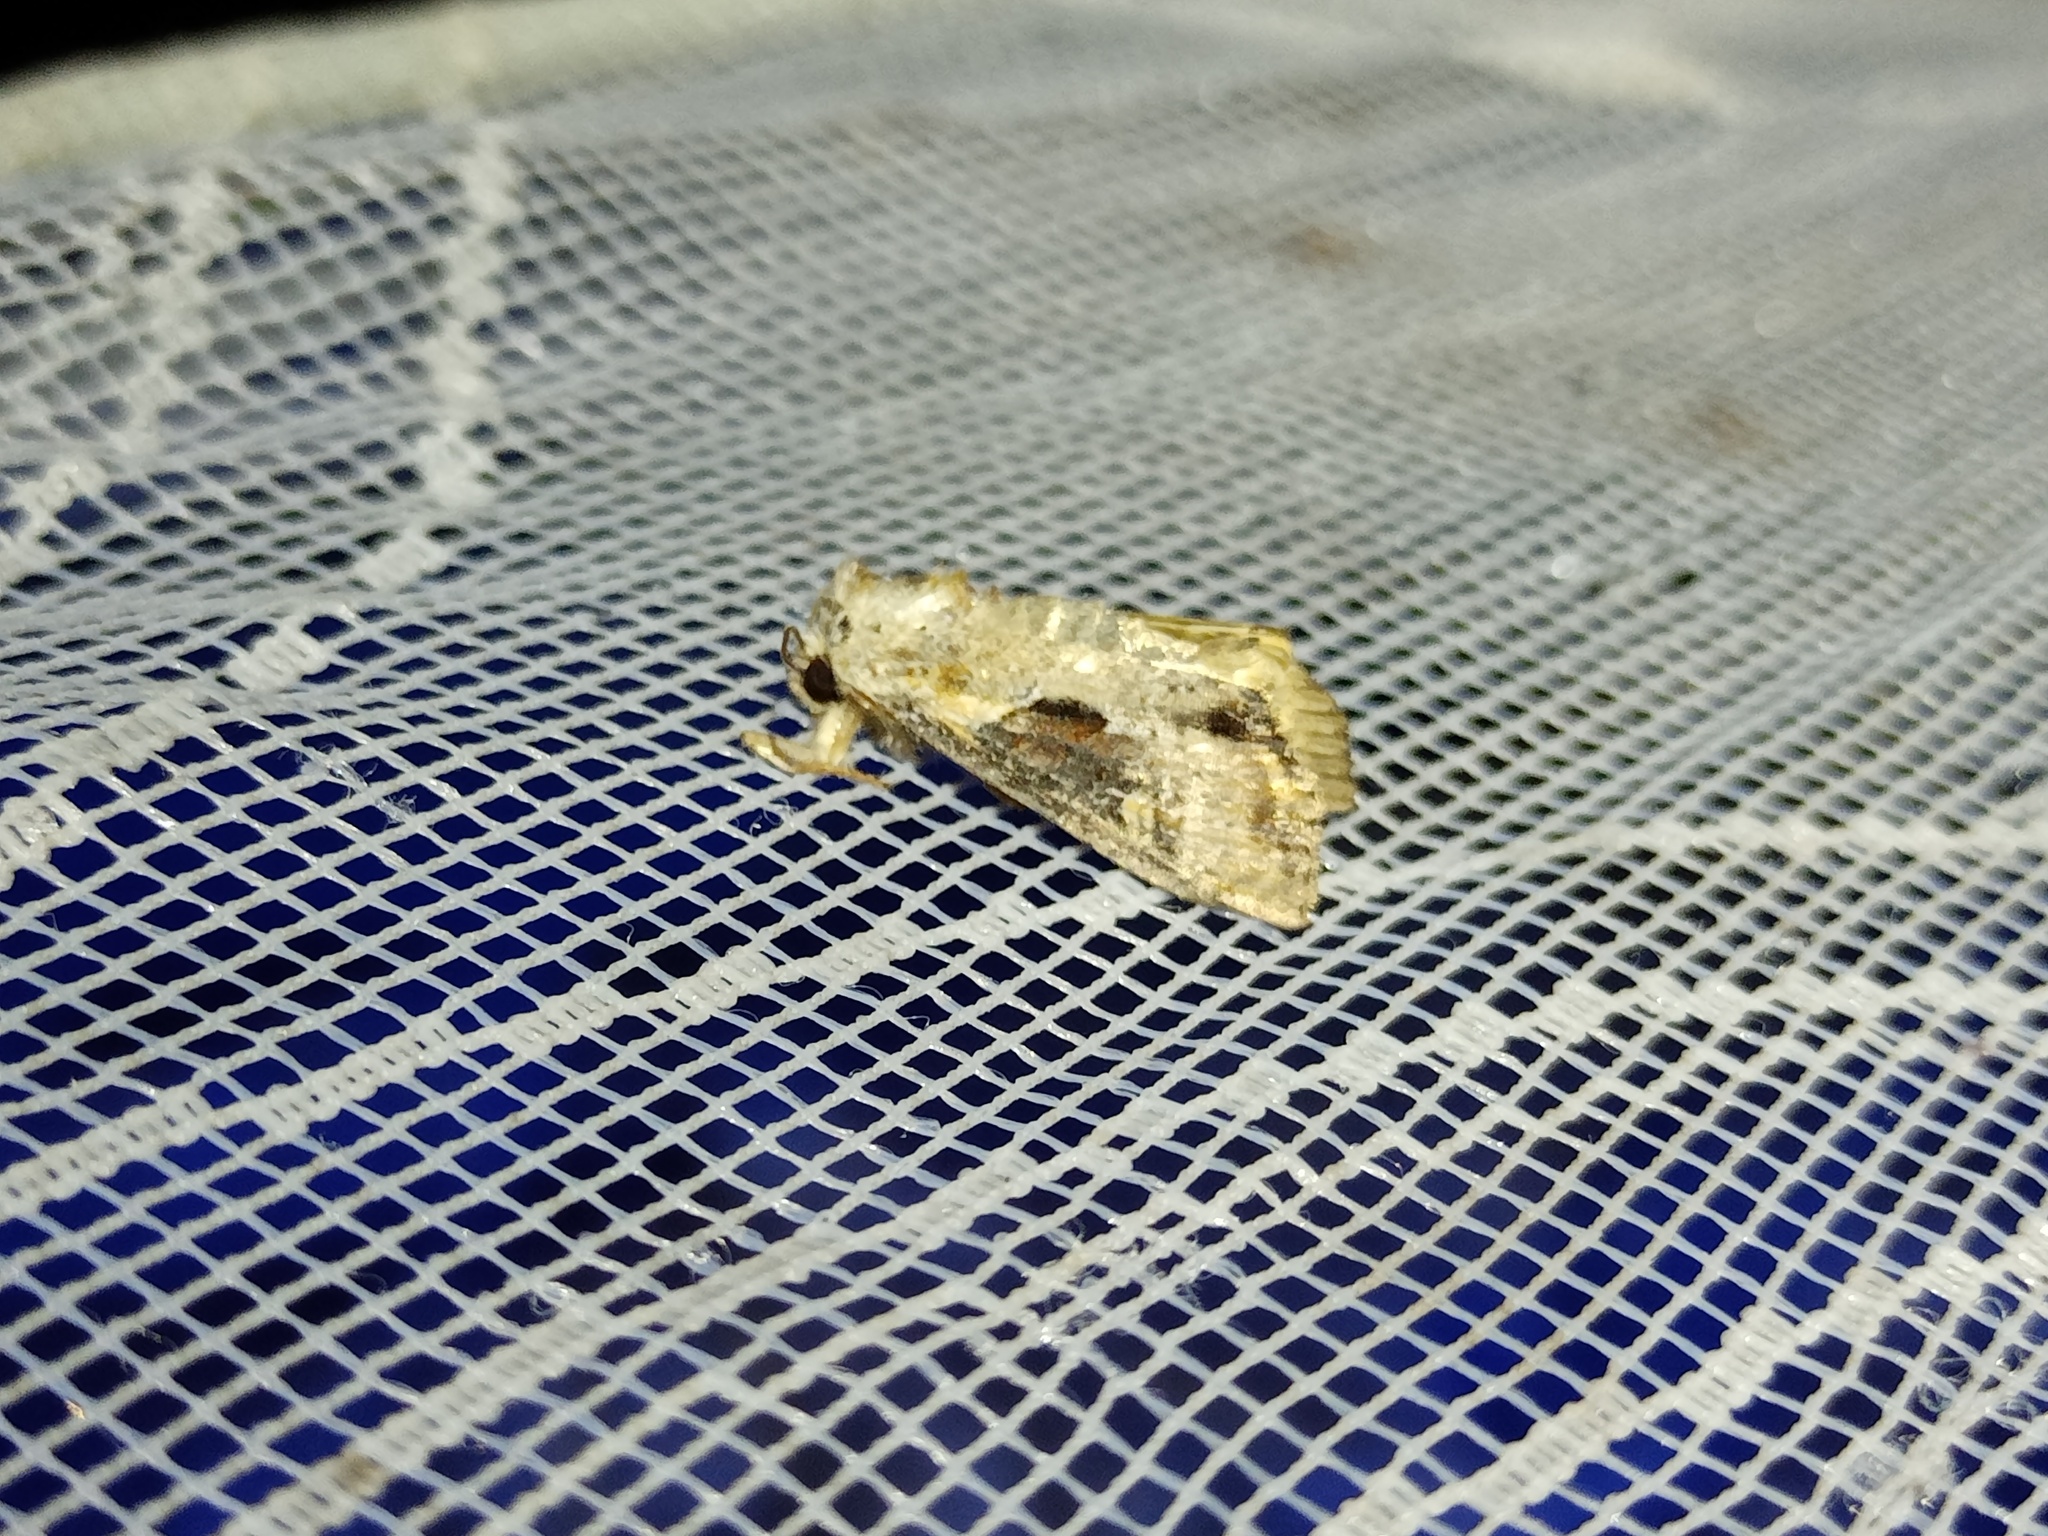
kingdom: Animalia
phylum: Arthropoda
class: Insecta
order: Lepidoptera
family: Noctuidae
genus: Lateroligia
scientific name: Lateroligia ophiogramma
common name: Double lobed
